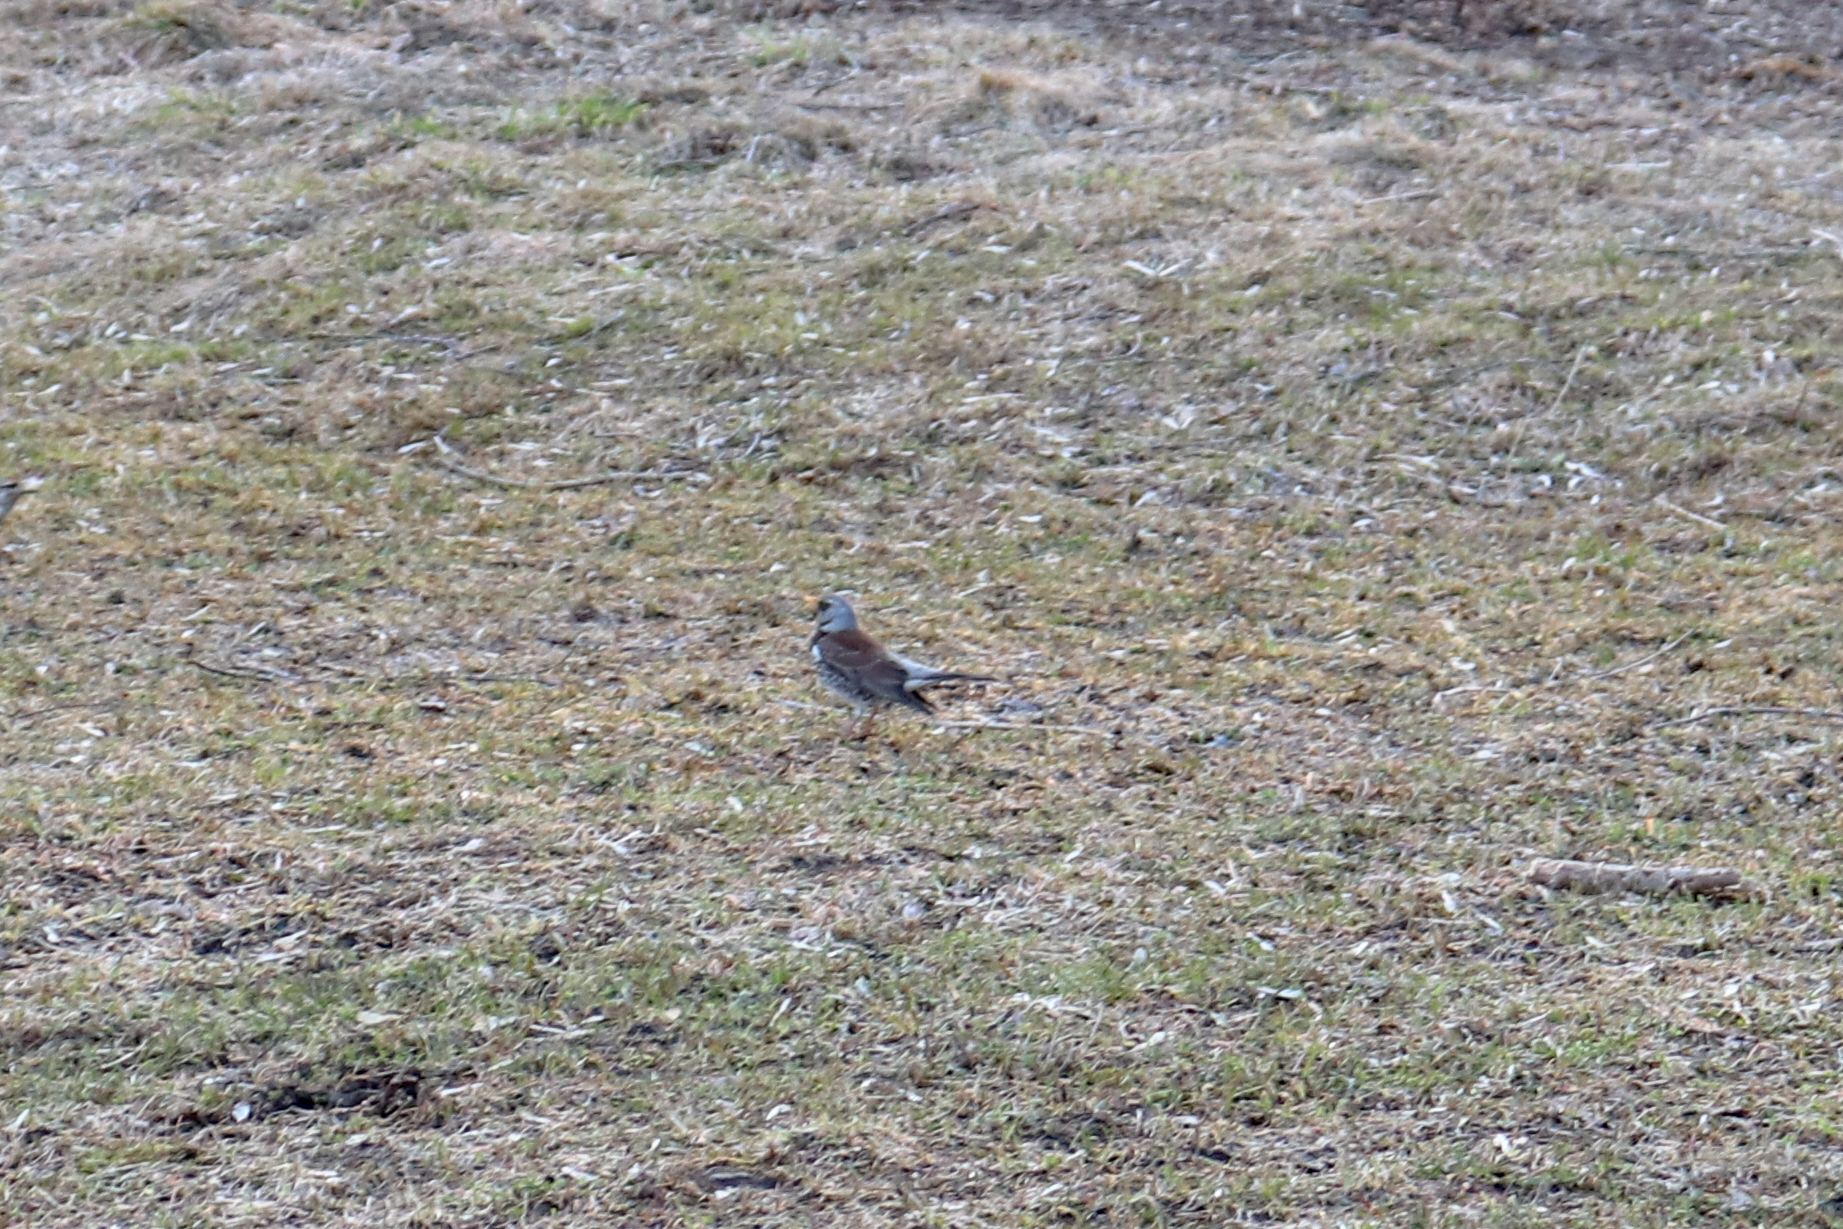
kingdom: Animalia
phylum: Chordata
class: Aves
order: Passeriformes
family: Turdidae
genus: Turdus
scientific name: Turdus pilaris
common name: Fieldfare
